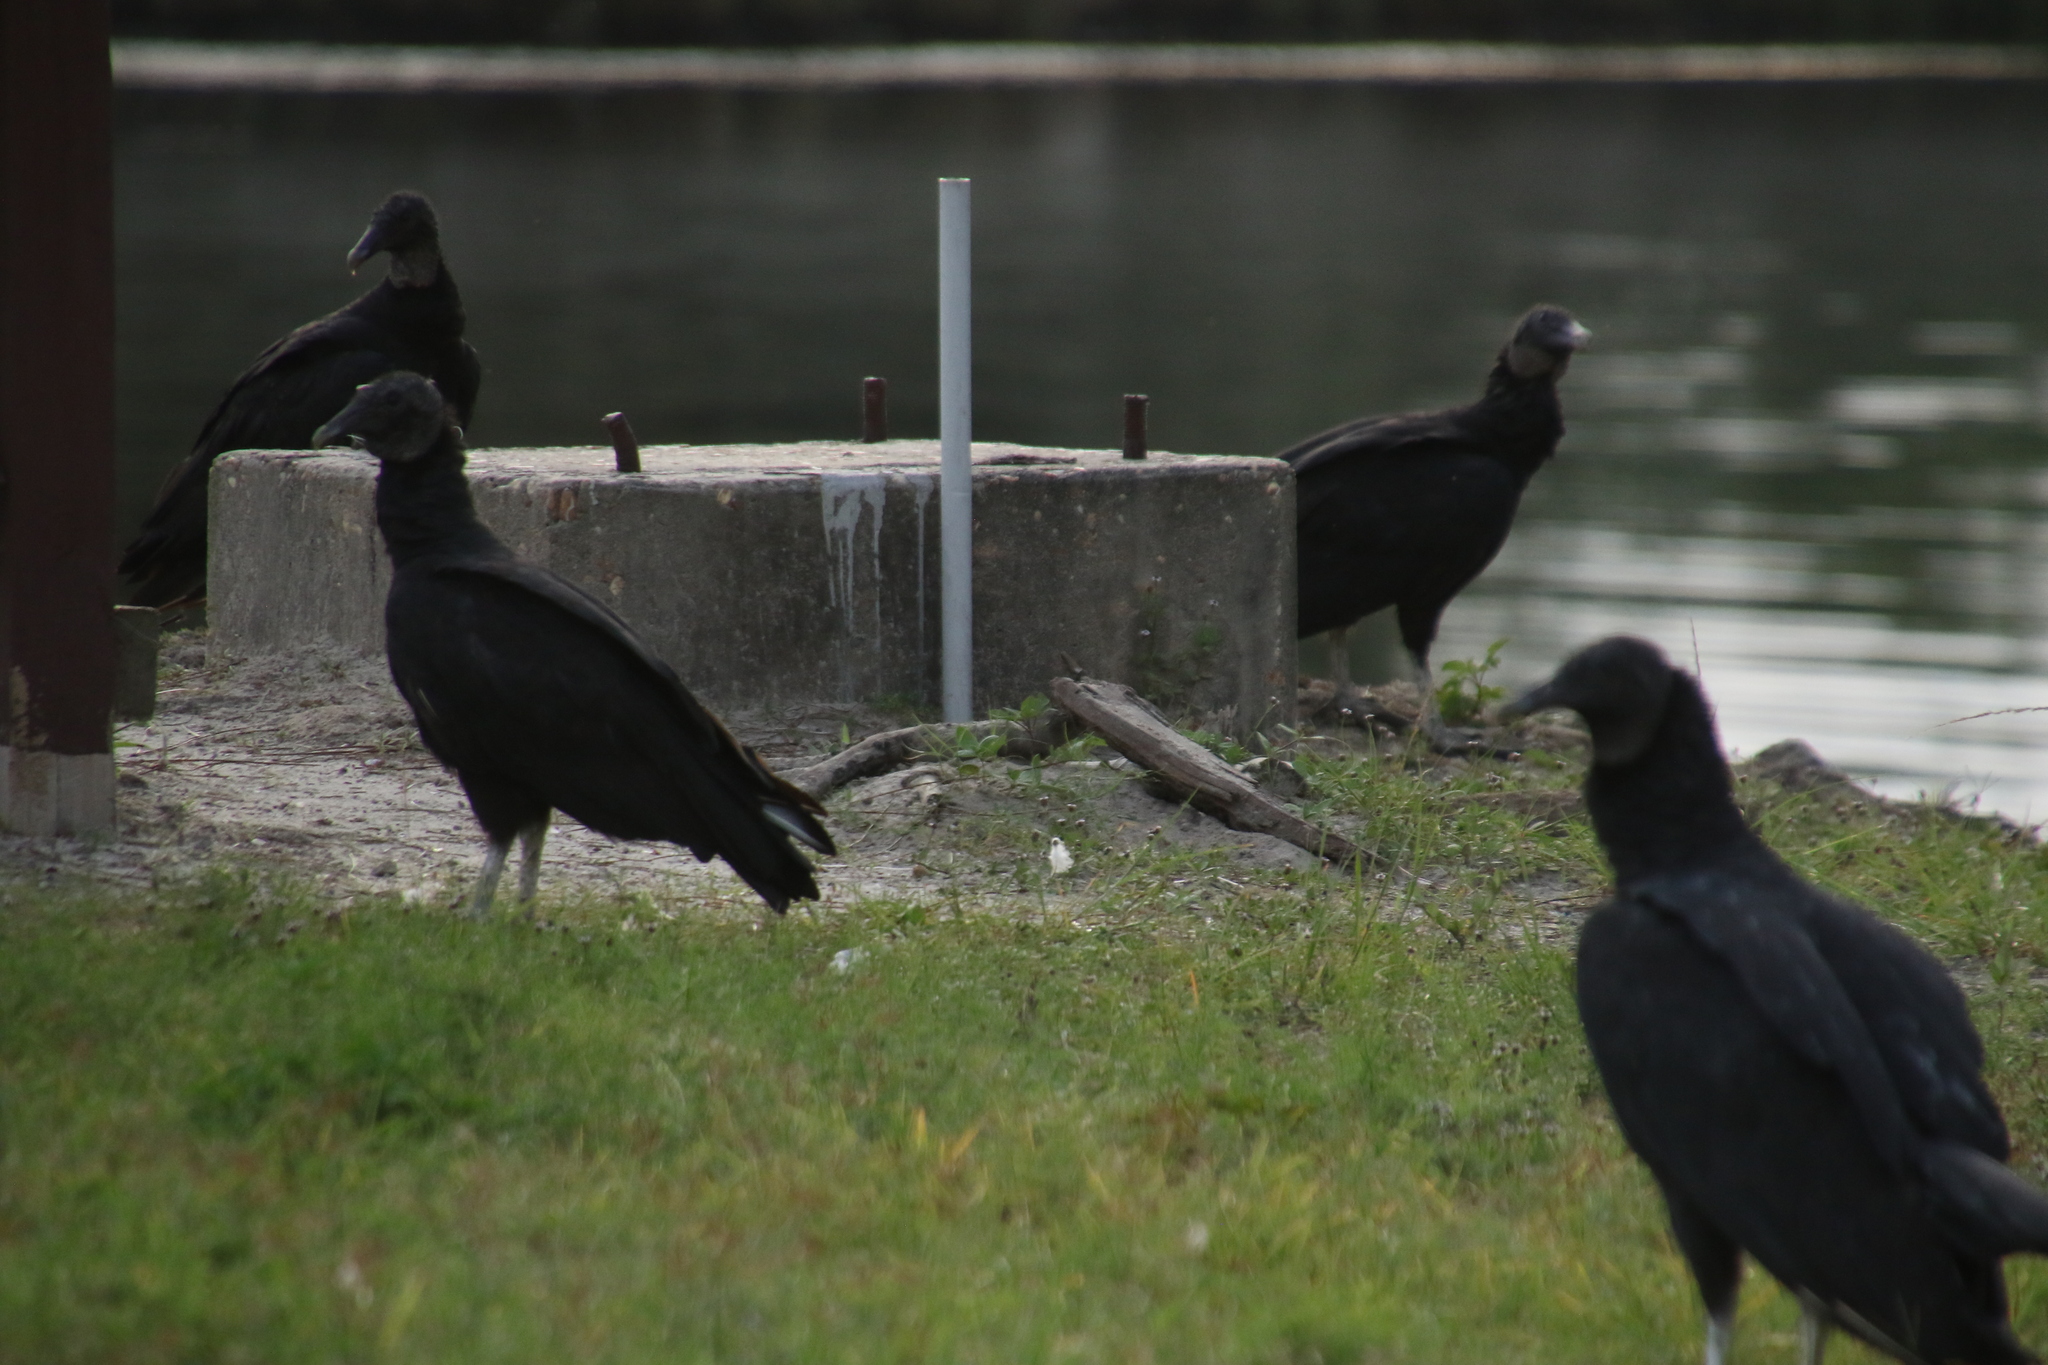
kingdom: Animalia
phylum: Chordata
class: Aves
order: Accipitriformes
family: Cathartidae
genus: Coragyps
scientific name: Coragyps atratus
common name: Black vulture
